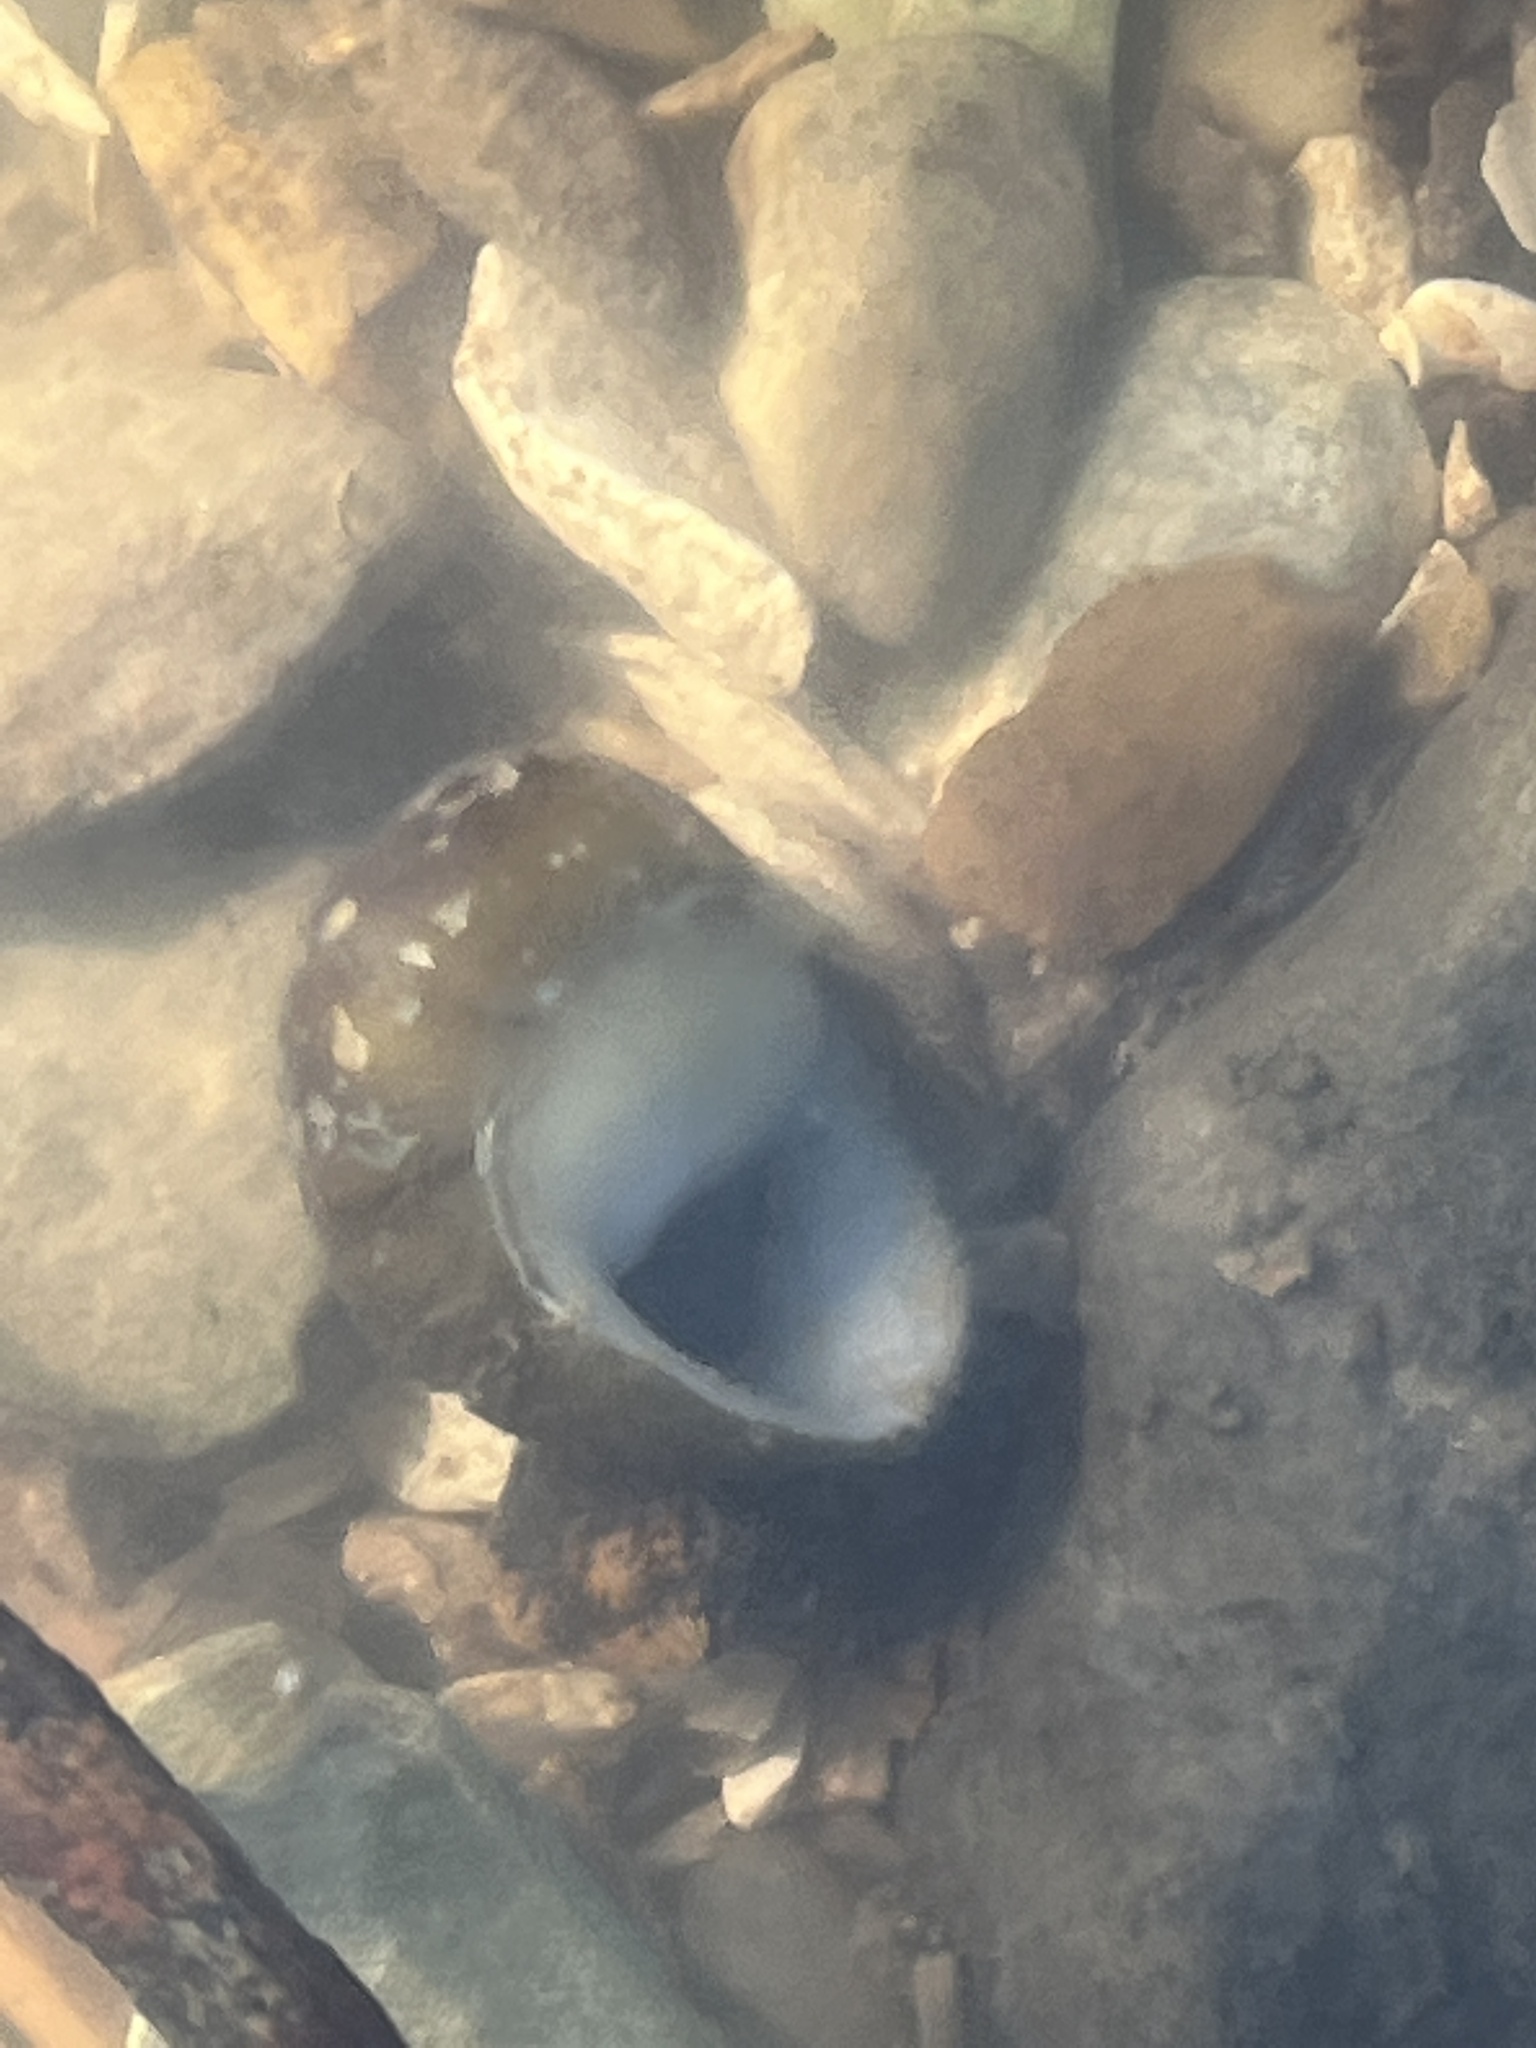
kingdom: Animalia
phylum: Mollusca
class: Gastropoda
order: Cycloneritida
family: Neritidae
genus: Vitta
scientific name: Vitta usnea
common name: Olive nerite
